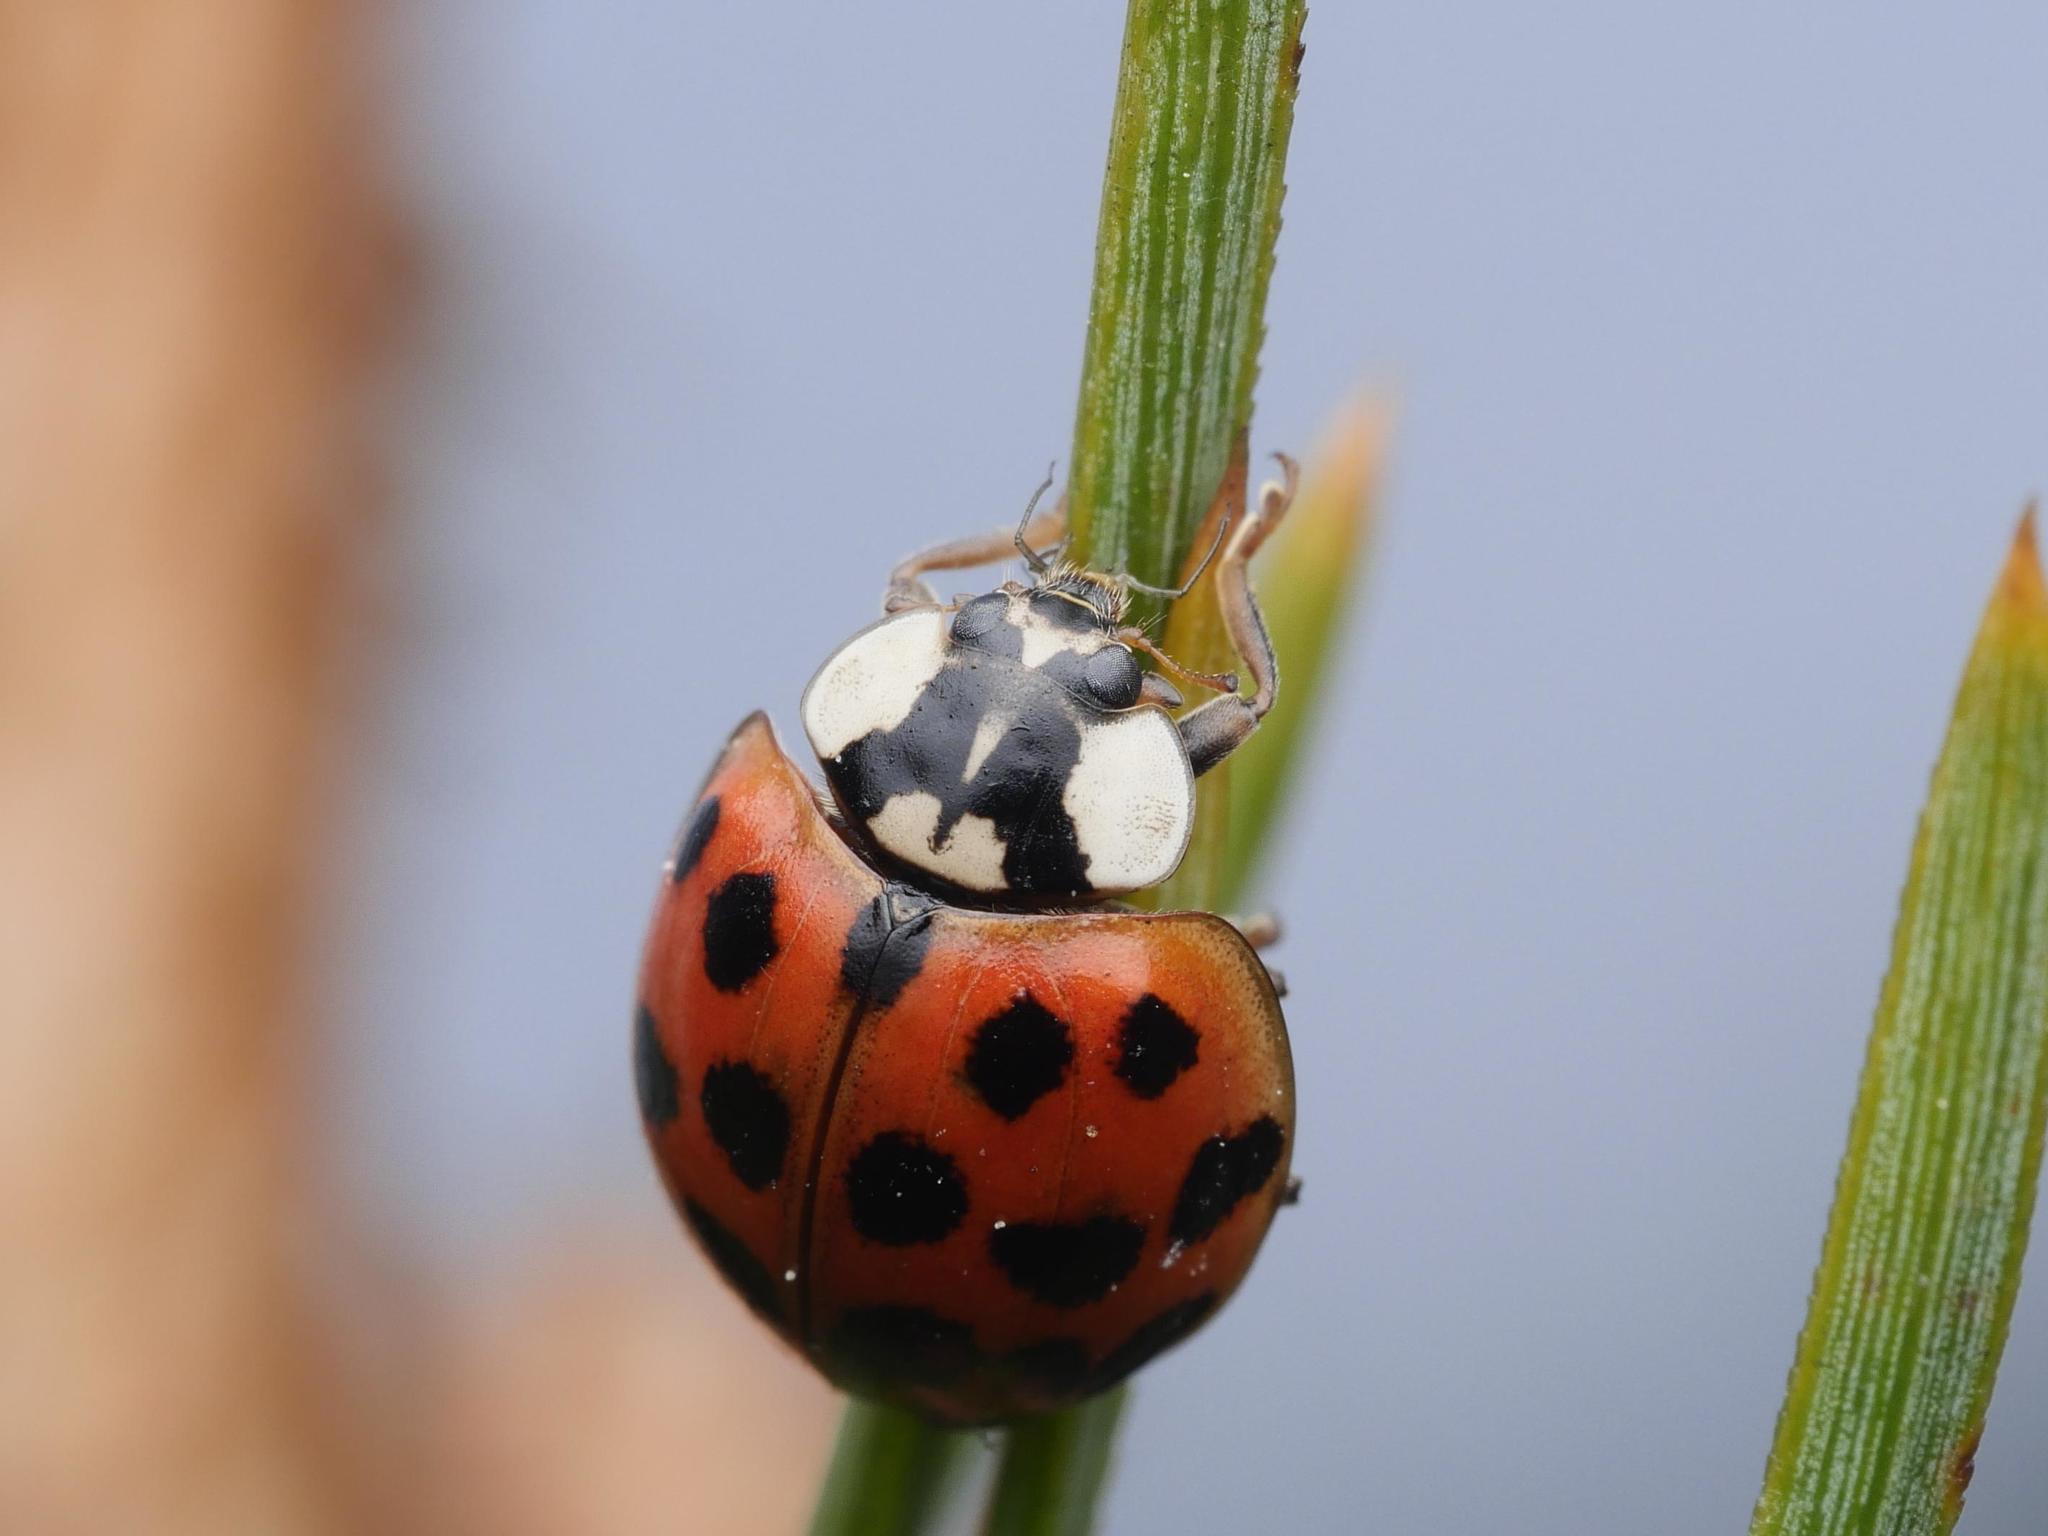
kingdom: Animalia
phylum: Arthropoda
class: Insecta
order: Coleoptera
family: Coccinellidae
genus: Harmonia
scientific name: Harmonia axyridis
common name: Harlequin ladybird
